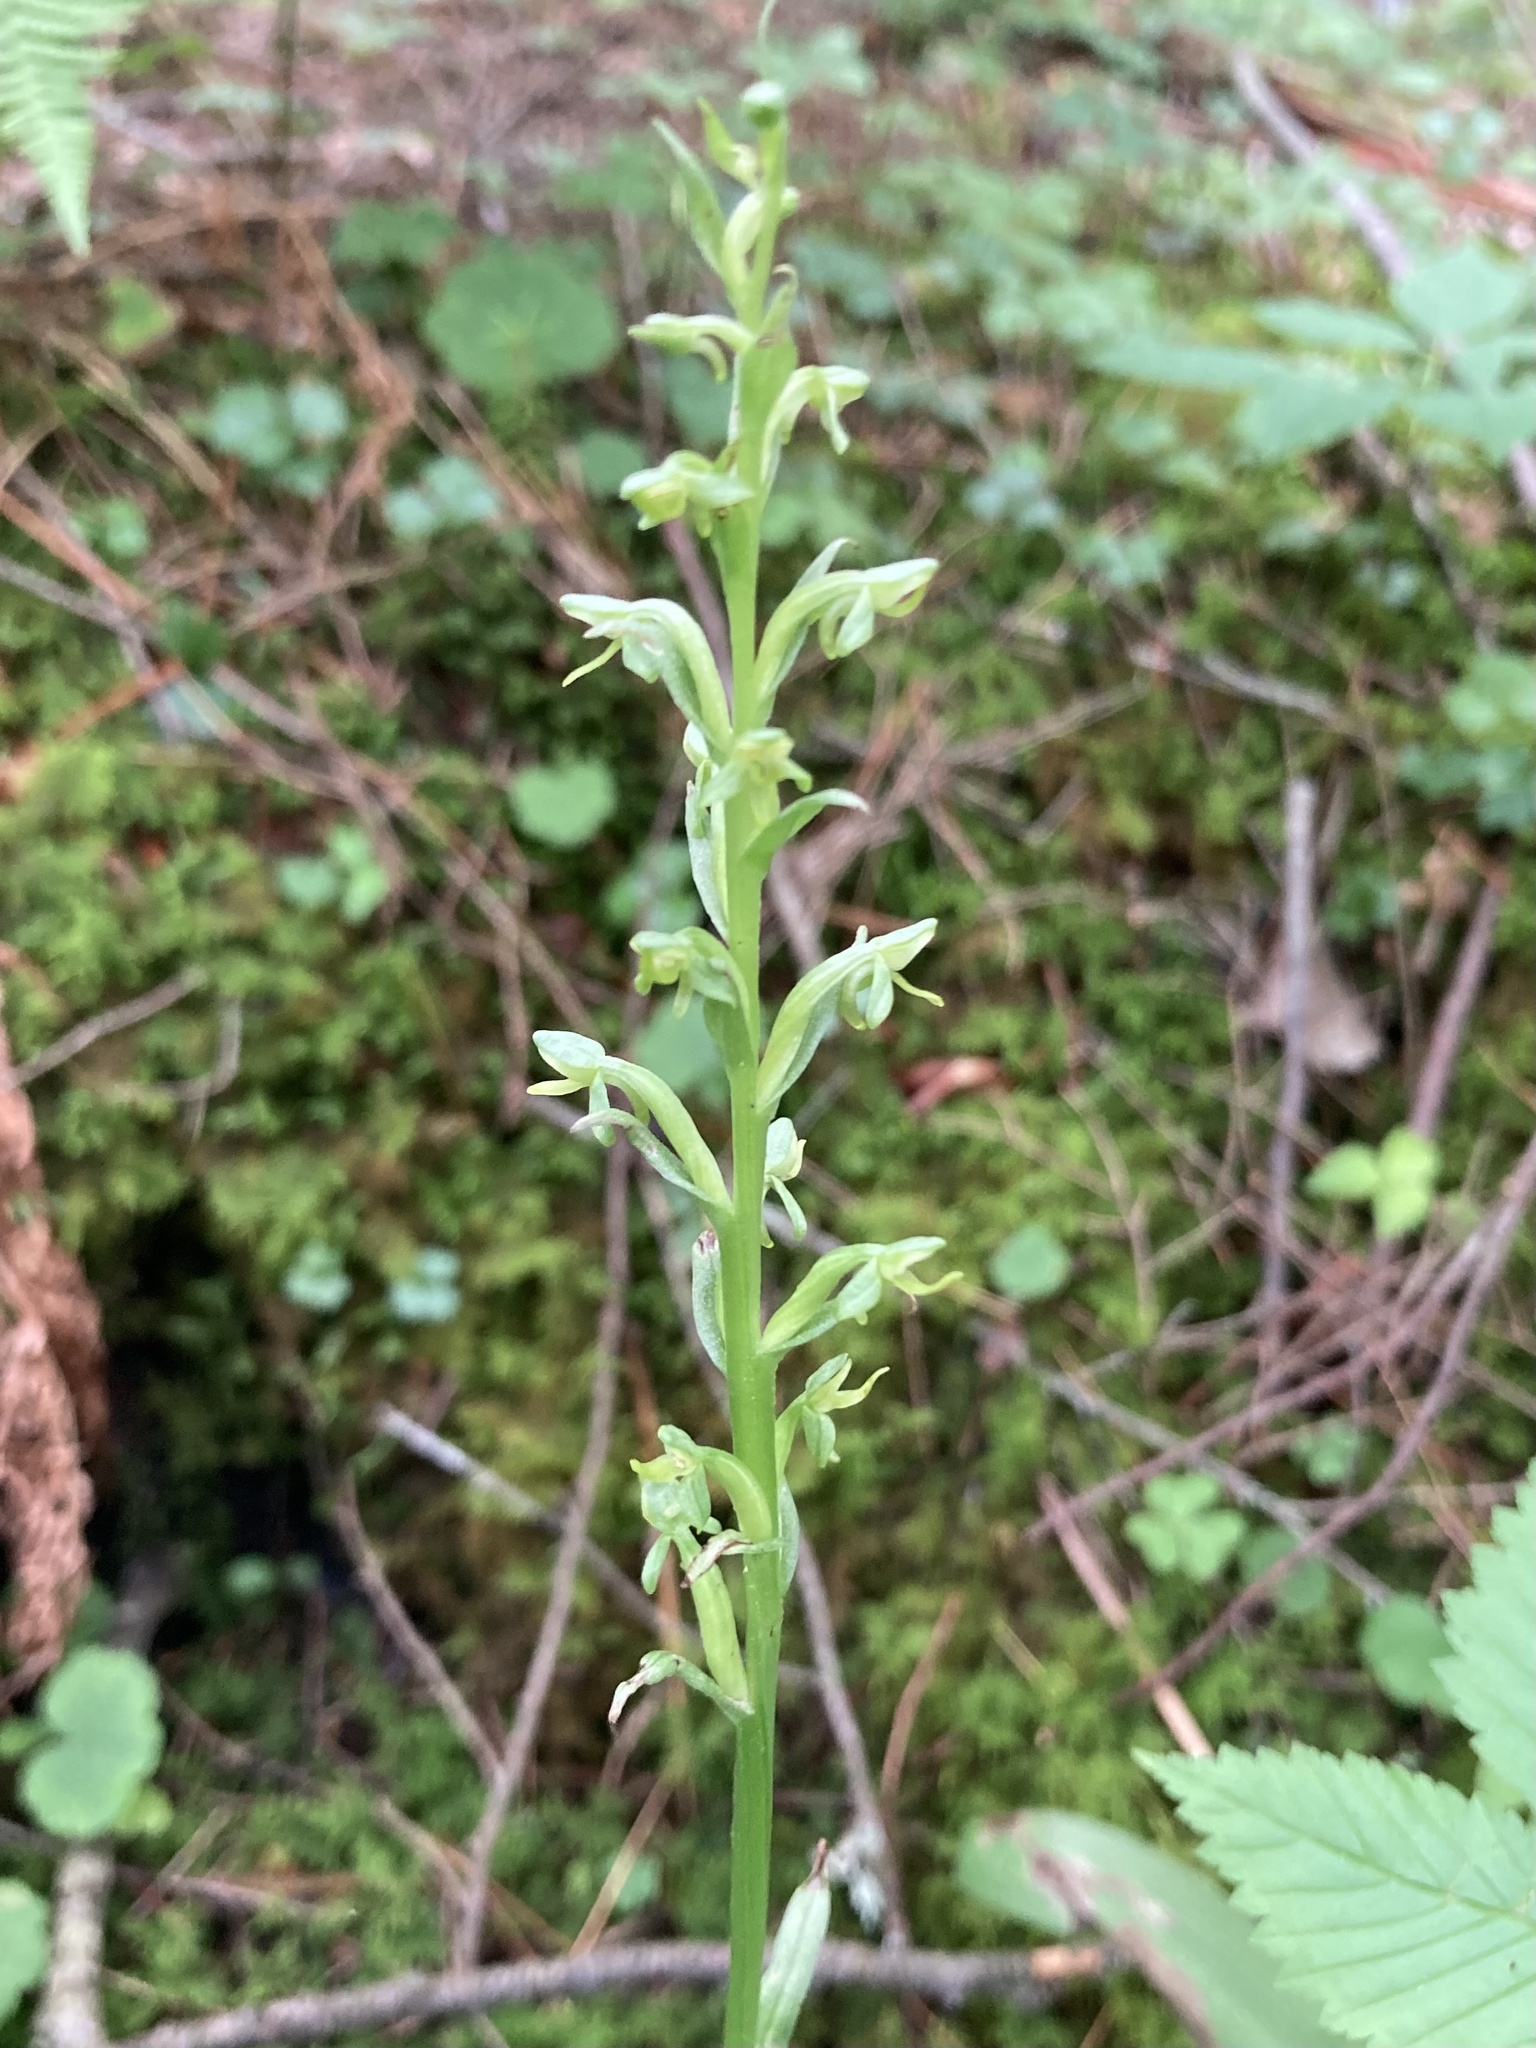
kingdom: Plantae
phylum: Tracheophyta
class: Liliopsida
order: Asparagales
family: Orchidaceae
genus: Platanthera
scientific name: Platanthera aquilonis
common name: Northern green orchid
